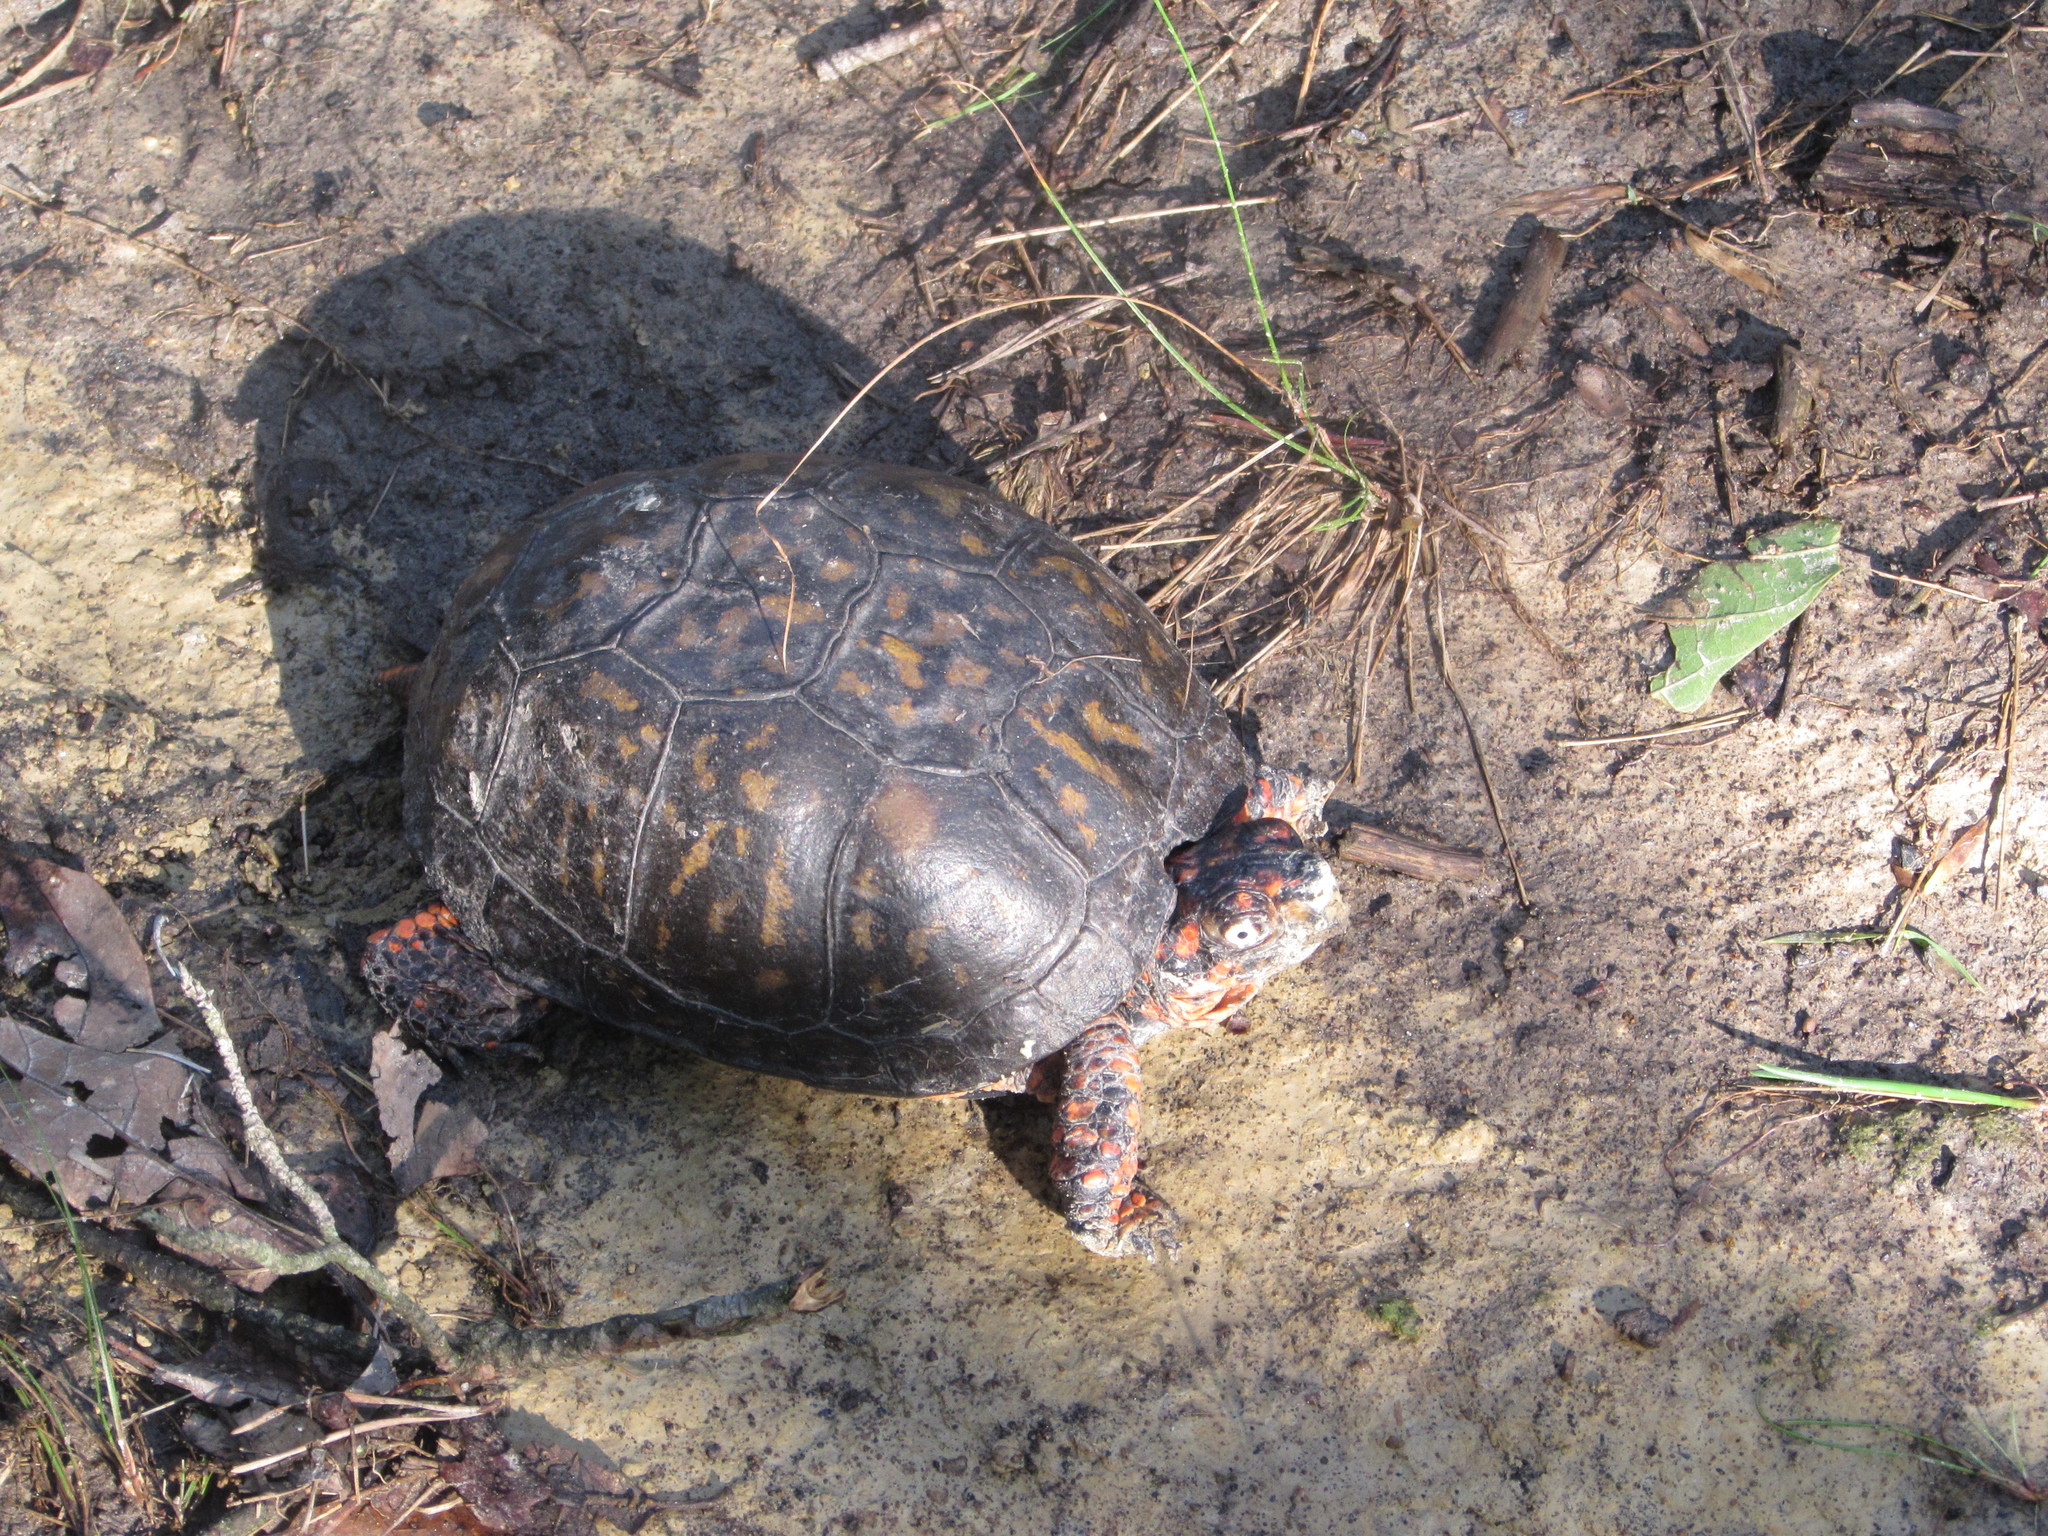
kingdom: Animalia
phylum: Chordata
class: Testudines
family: Emydidae
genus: Terrapene
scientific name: Terrapene carolina
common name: Common box turtle
